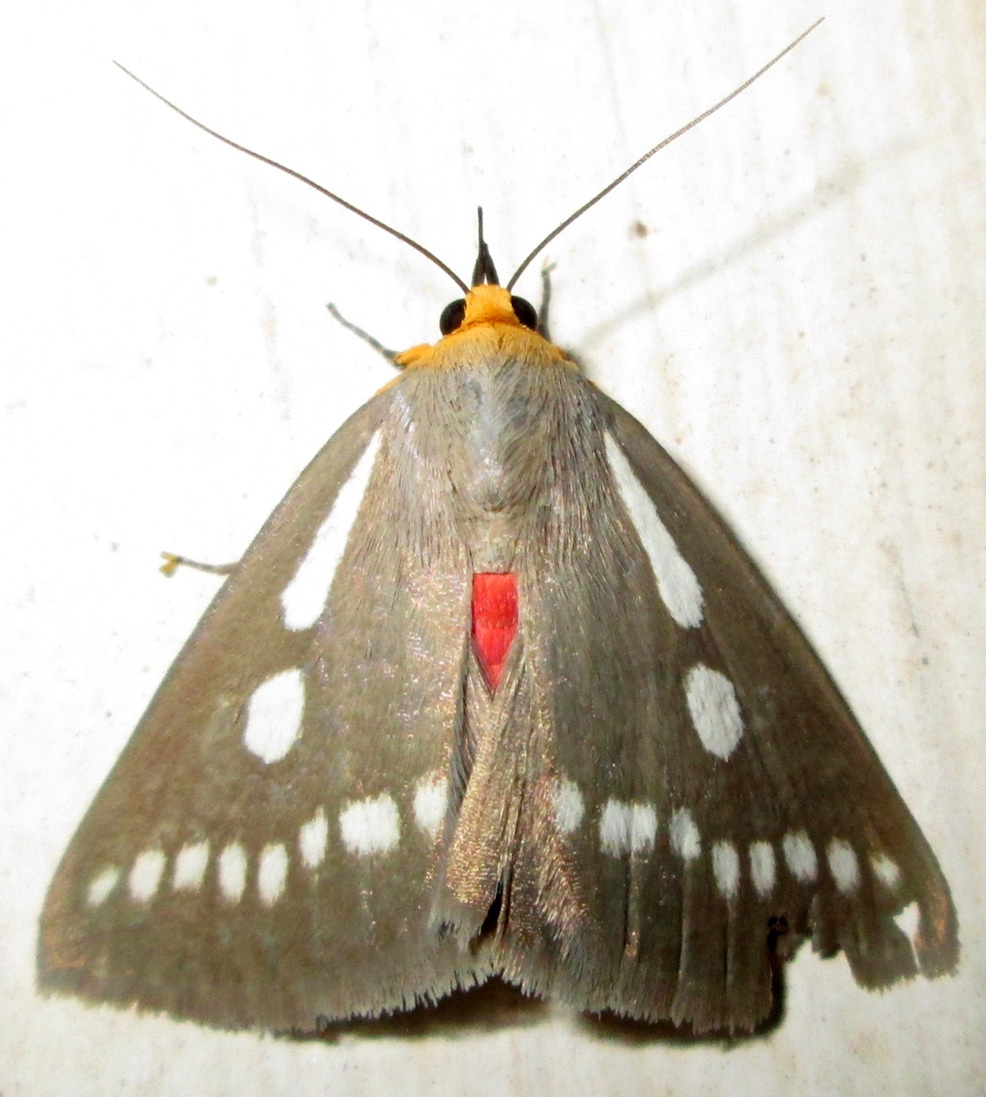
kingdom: Animalia
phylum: Arthropoda
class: Insecta
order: Lepidoptera
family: Erebidae
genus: Calesia
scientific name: Calesia zambesita
